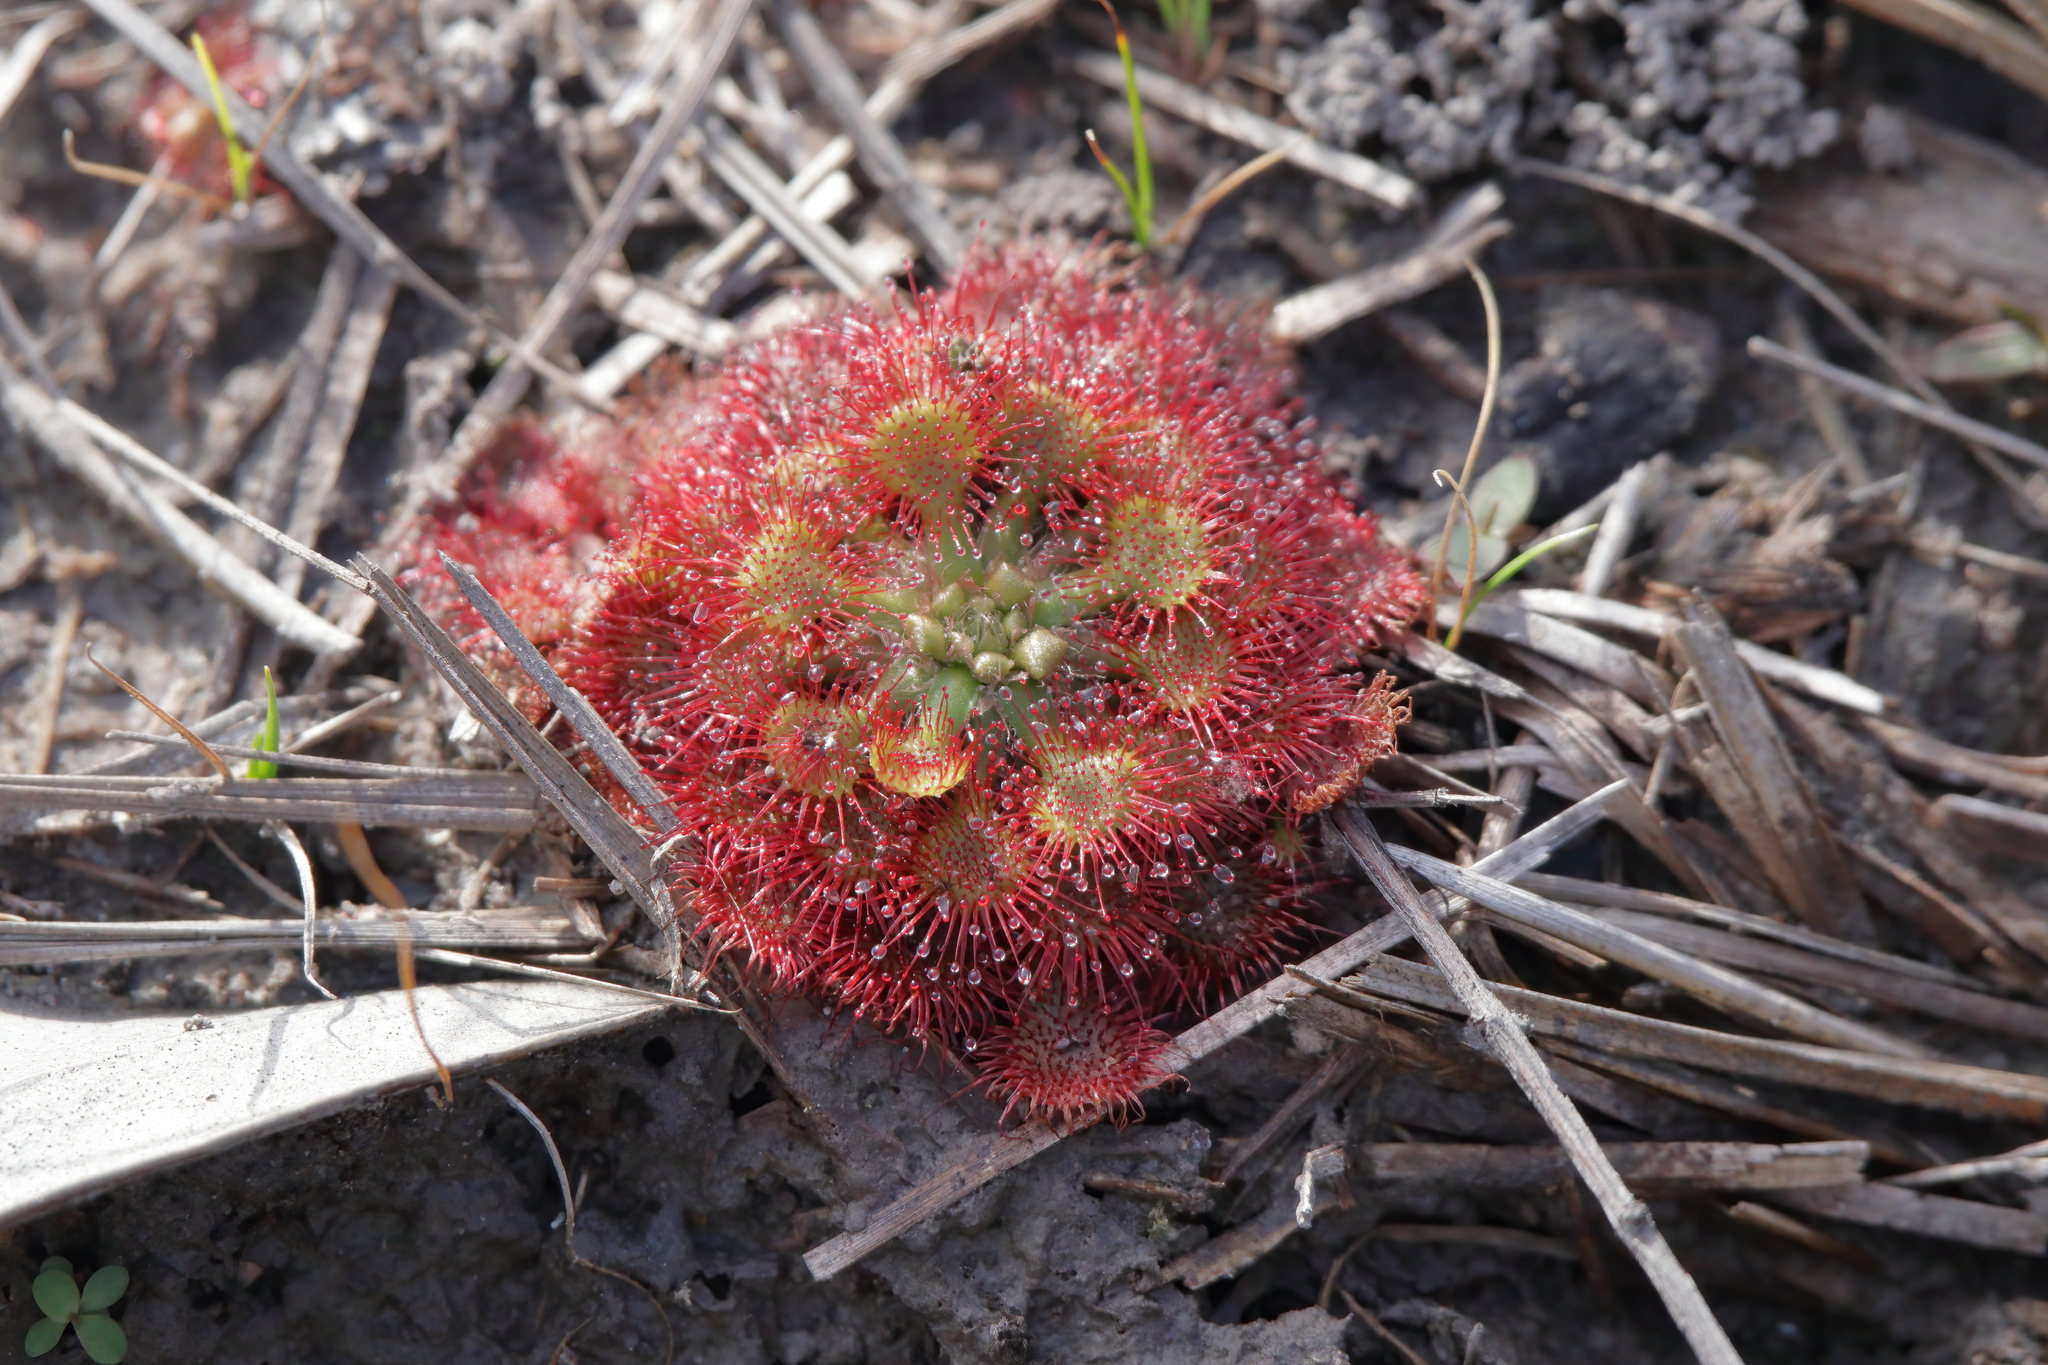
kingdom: Plantae
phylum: Tracheophyta
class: Magnoliopsida
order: Caryophyllales
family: Droseraceae
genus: Drosera
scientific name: Drosera capillaris
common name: Pink sundew
